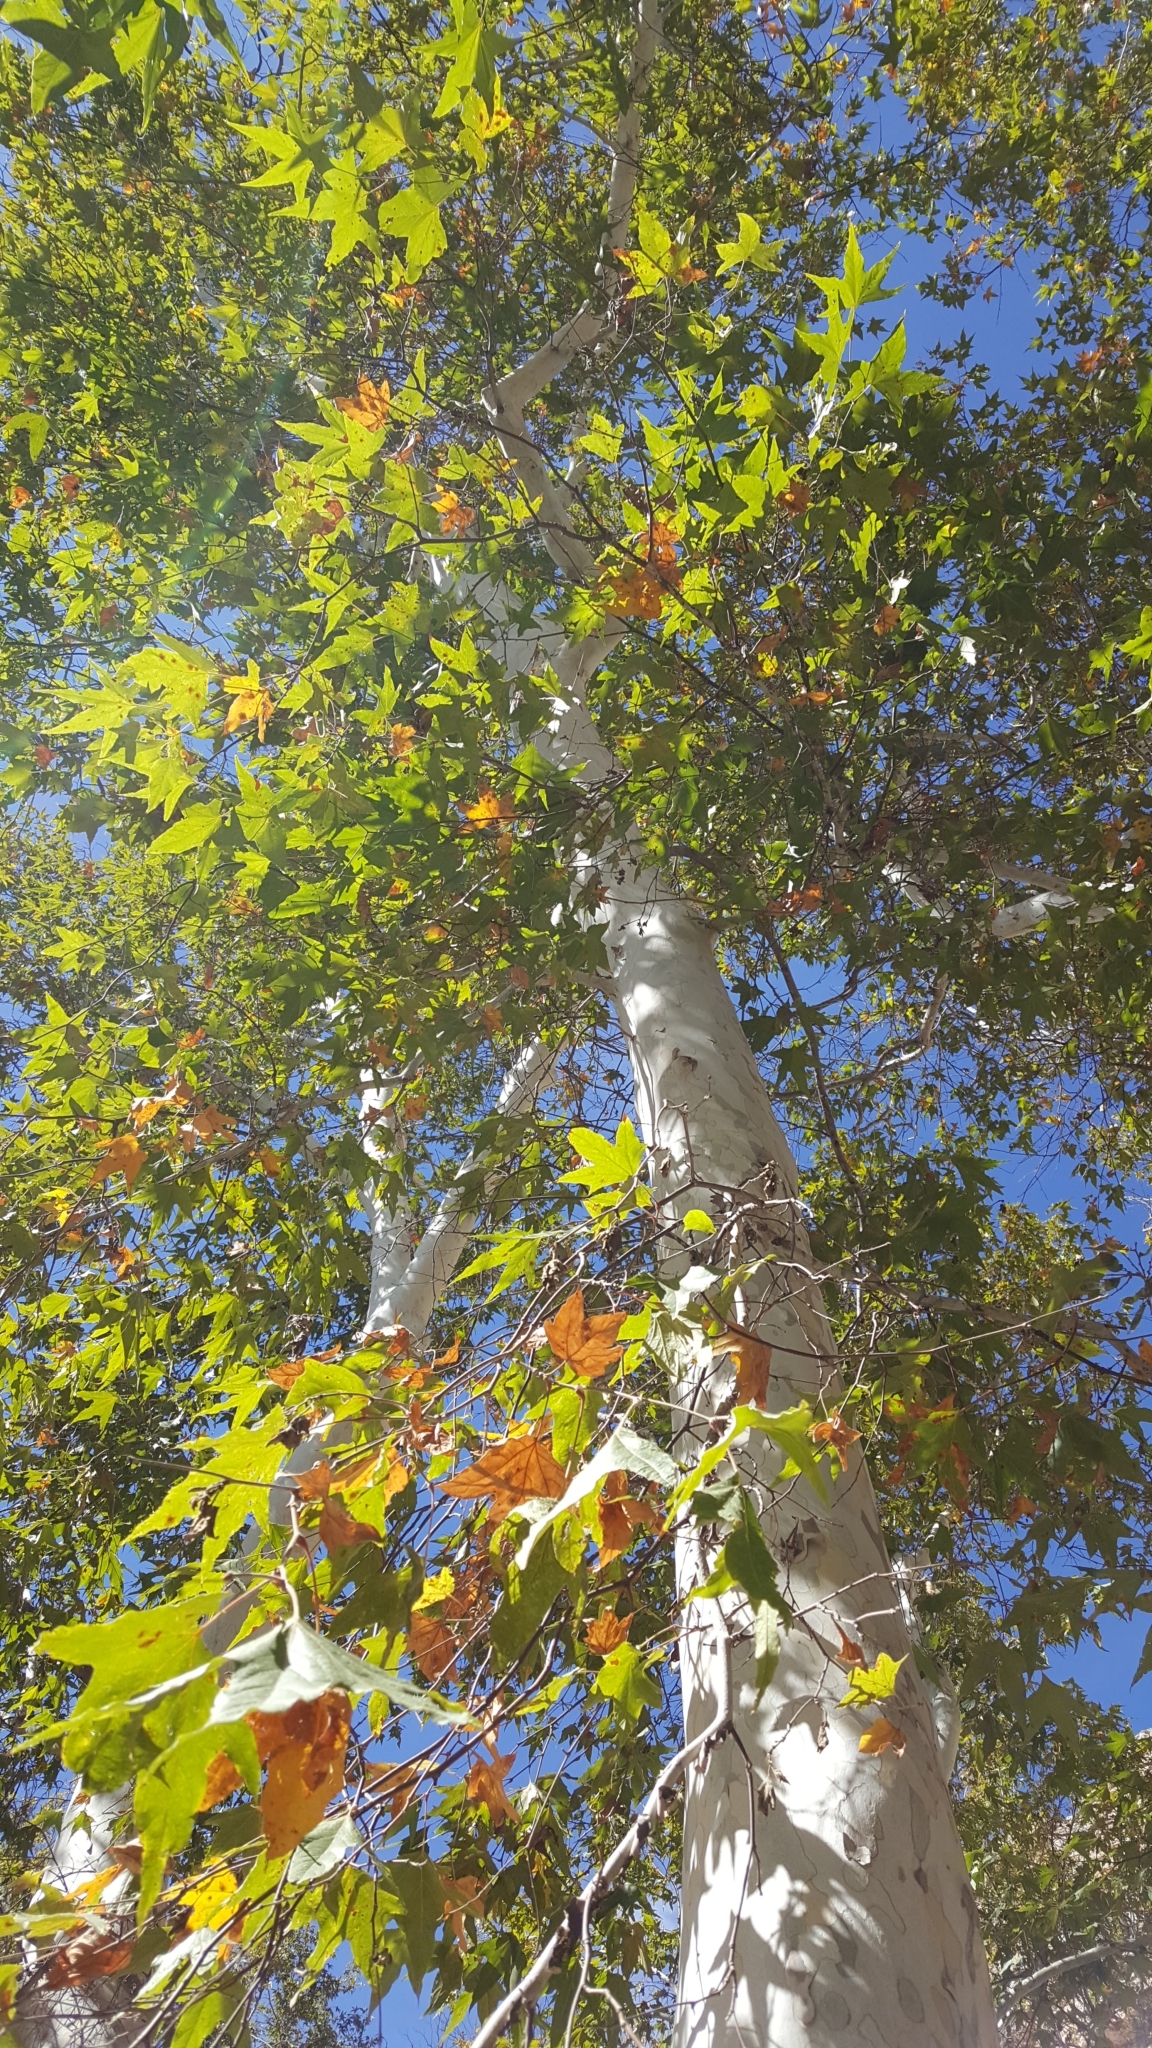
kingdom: Plantae
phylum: Tracheophyta
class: Magnoliopsida
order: Proteales
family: Platanaceae
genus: Platanus
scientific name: Platanus wrightii
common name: Arizona sycamore
